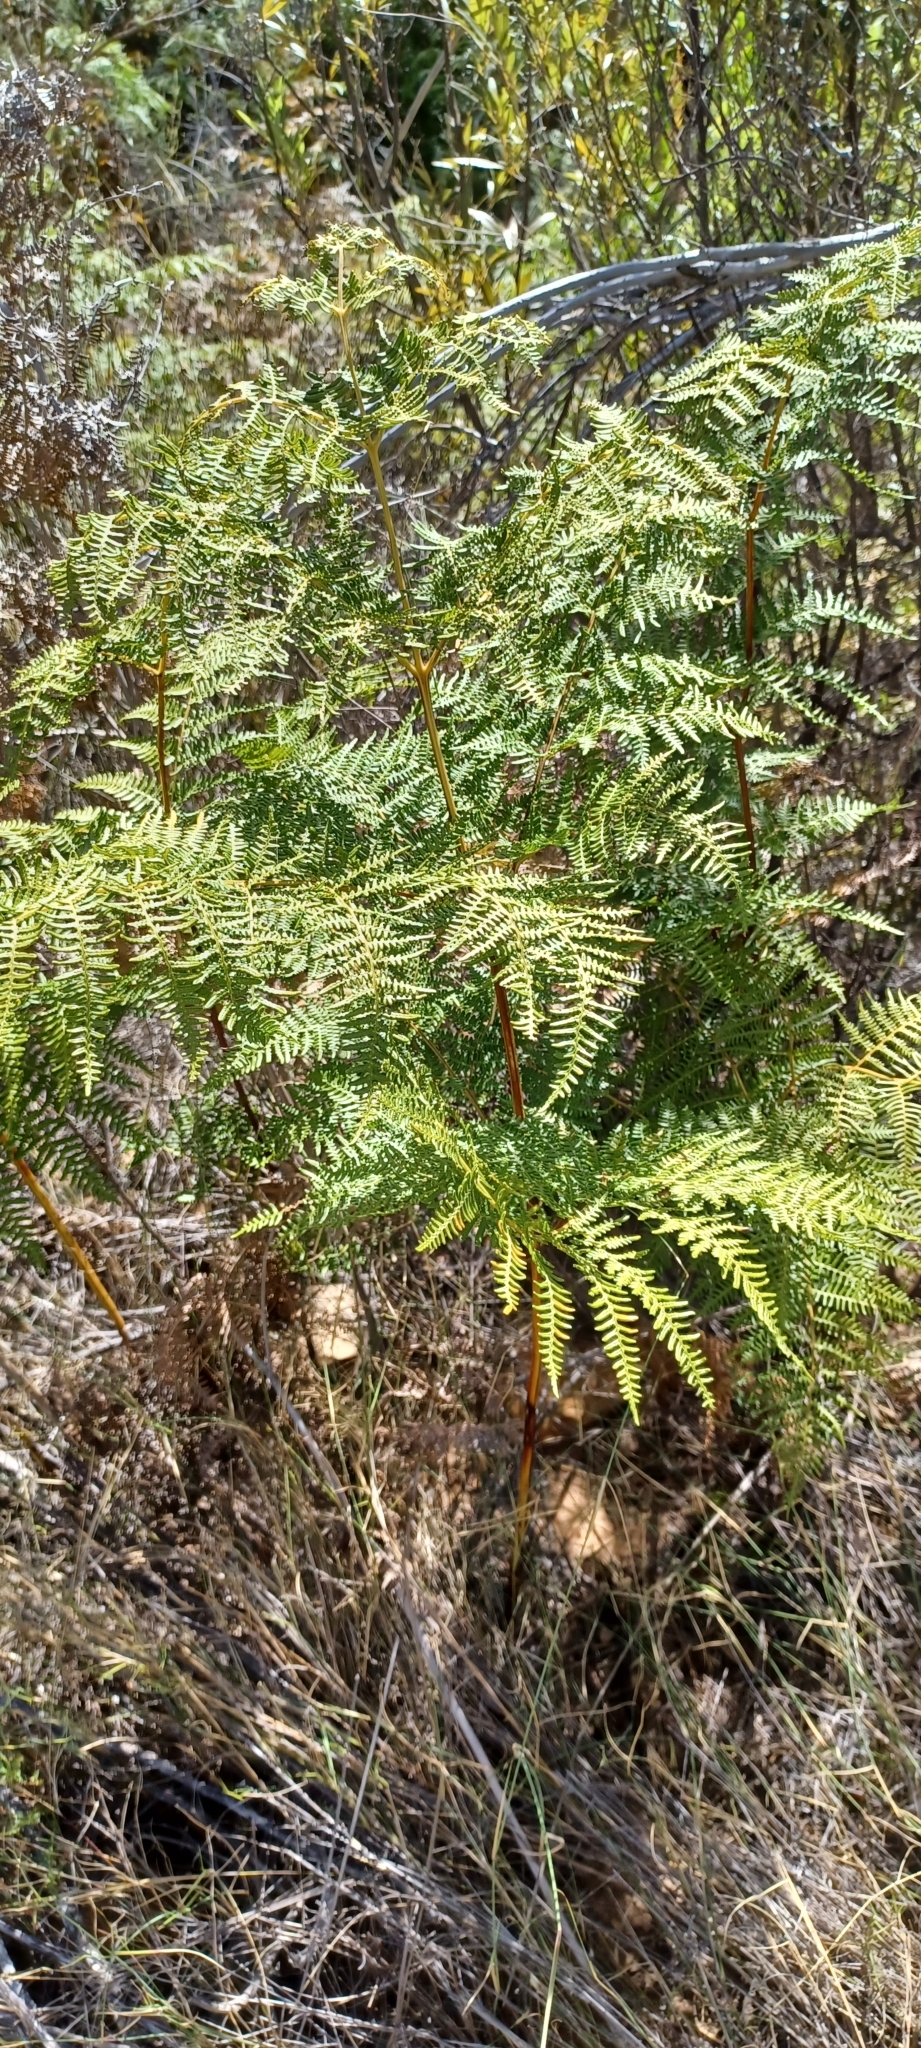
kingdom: Plantae
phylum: Tracheophyta
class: Polypodiopsida
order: Polypodiales
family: Dennstaedtiaceae
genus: Pteridium
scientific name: Pteridium aquilinum
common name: Bracken
